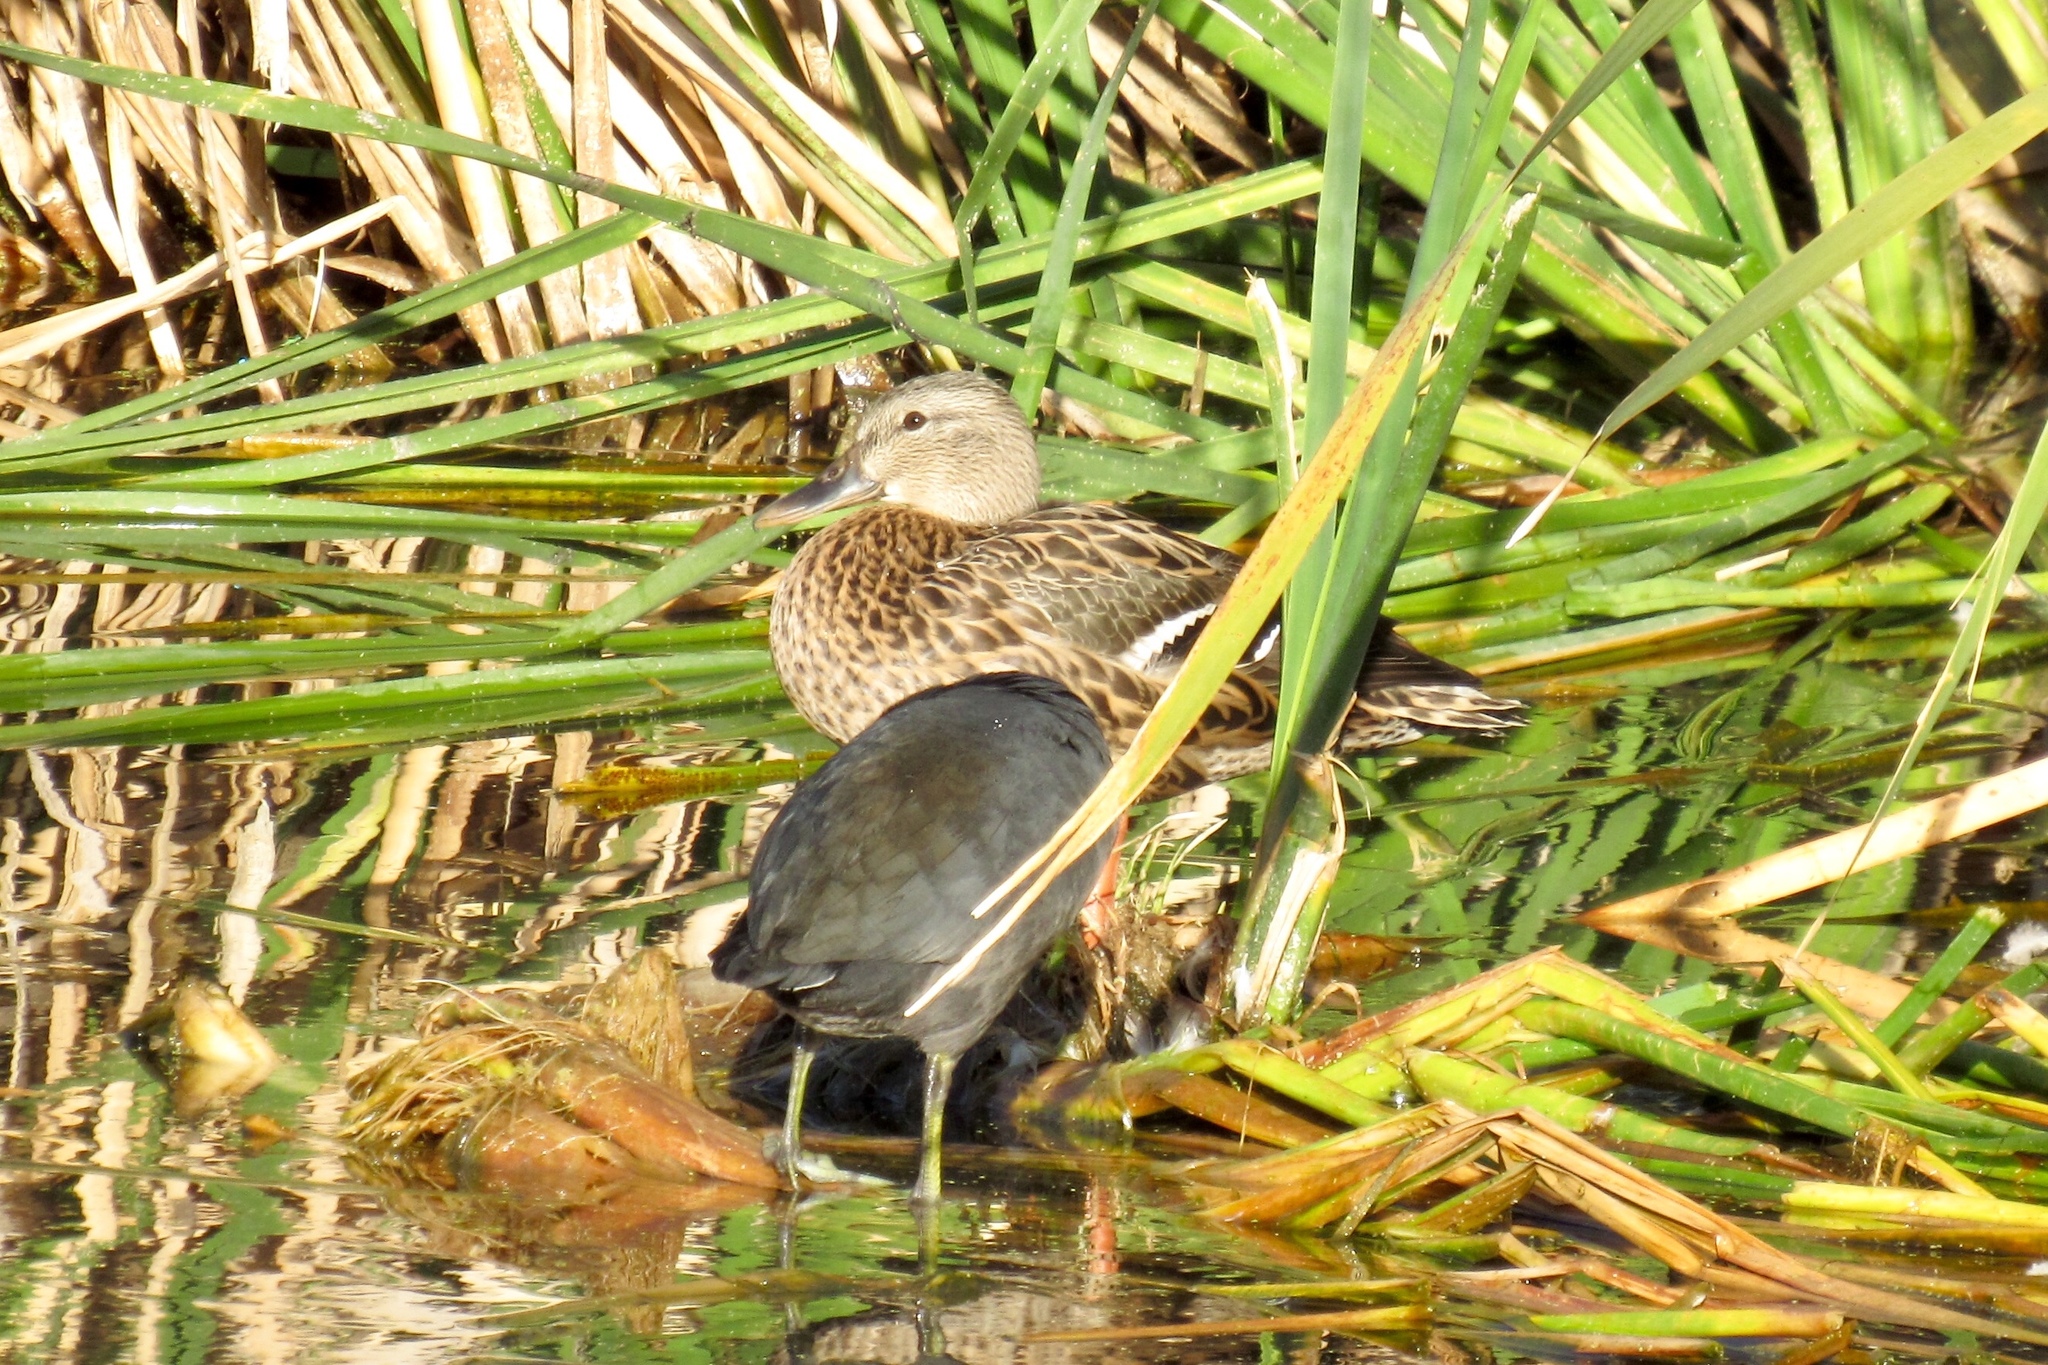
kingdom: Animalia
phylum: Chordata
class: Aves
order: Anseriformes
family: Anatidae
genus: Anas
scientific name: Anas platyrhynchos
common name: Mallard
